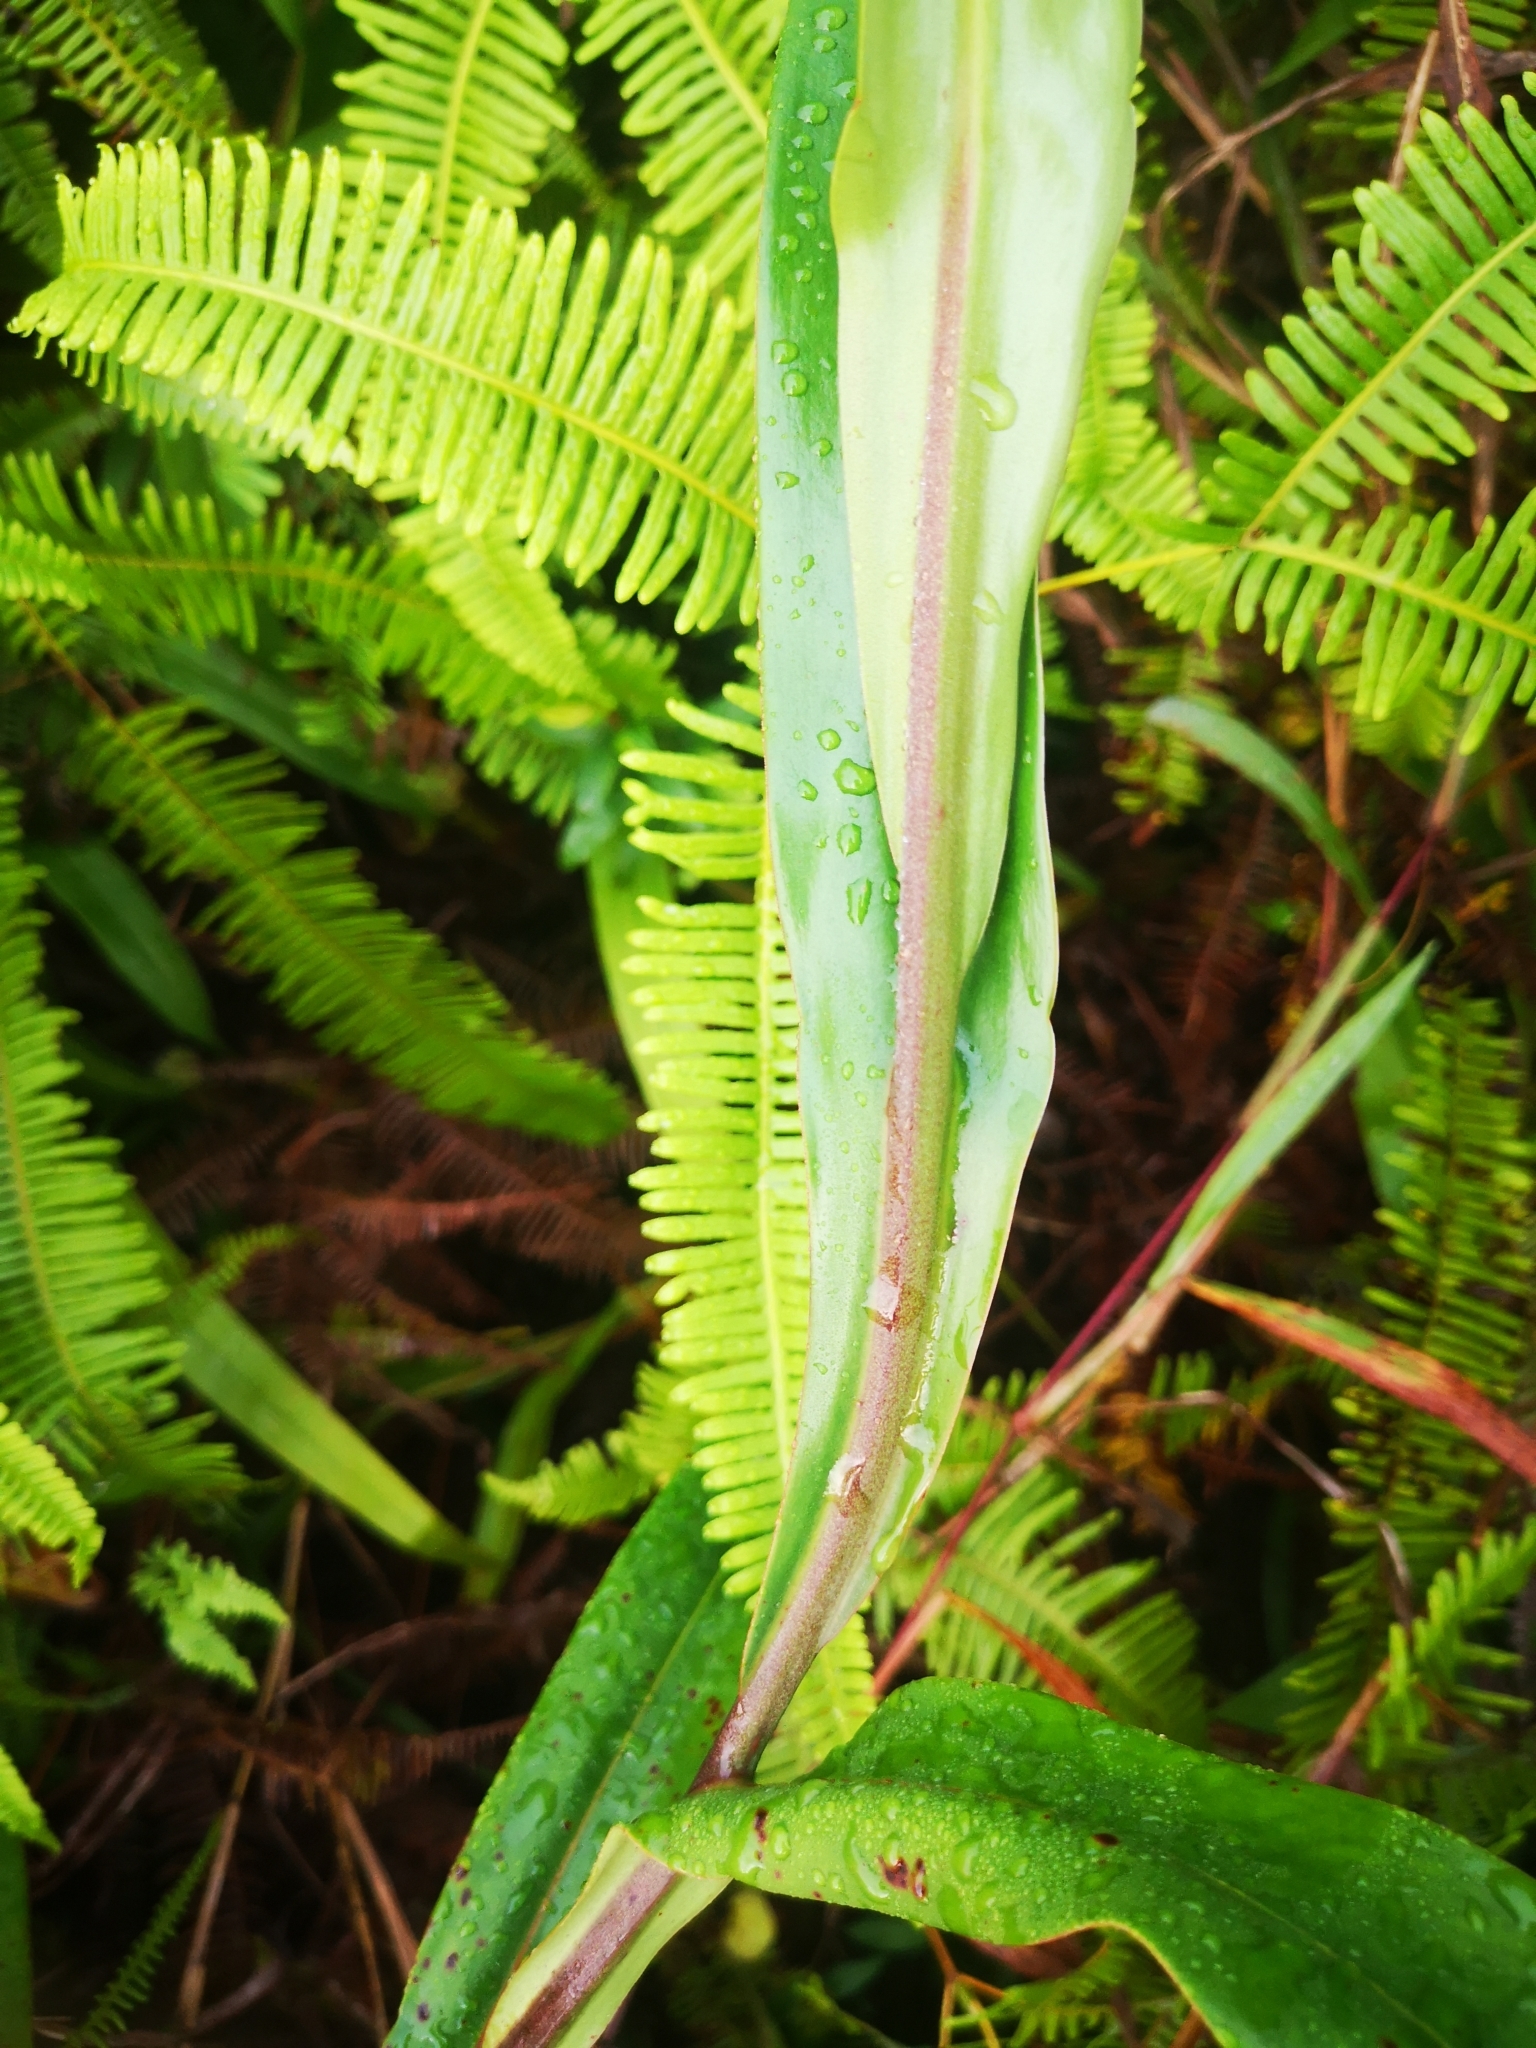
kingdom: Plantae
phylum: Tracheophyta
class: Magnoliopsida
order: Caryophyllales
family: Nepenthaceae
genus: Nepenthes
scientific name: Nepenthes gracilis
